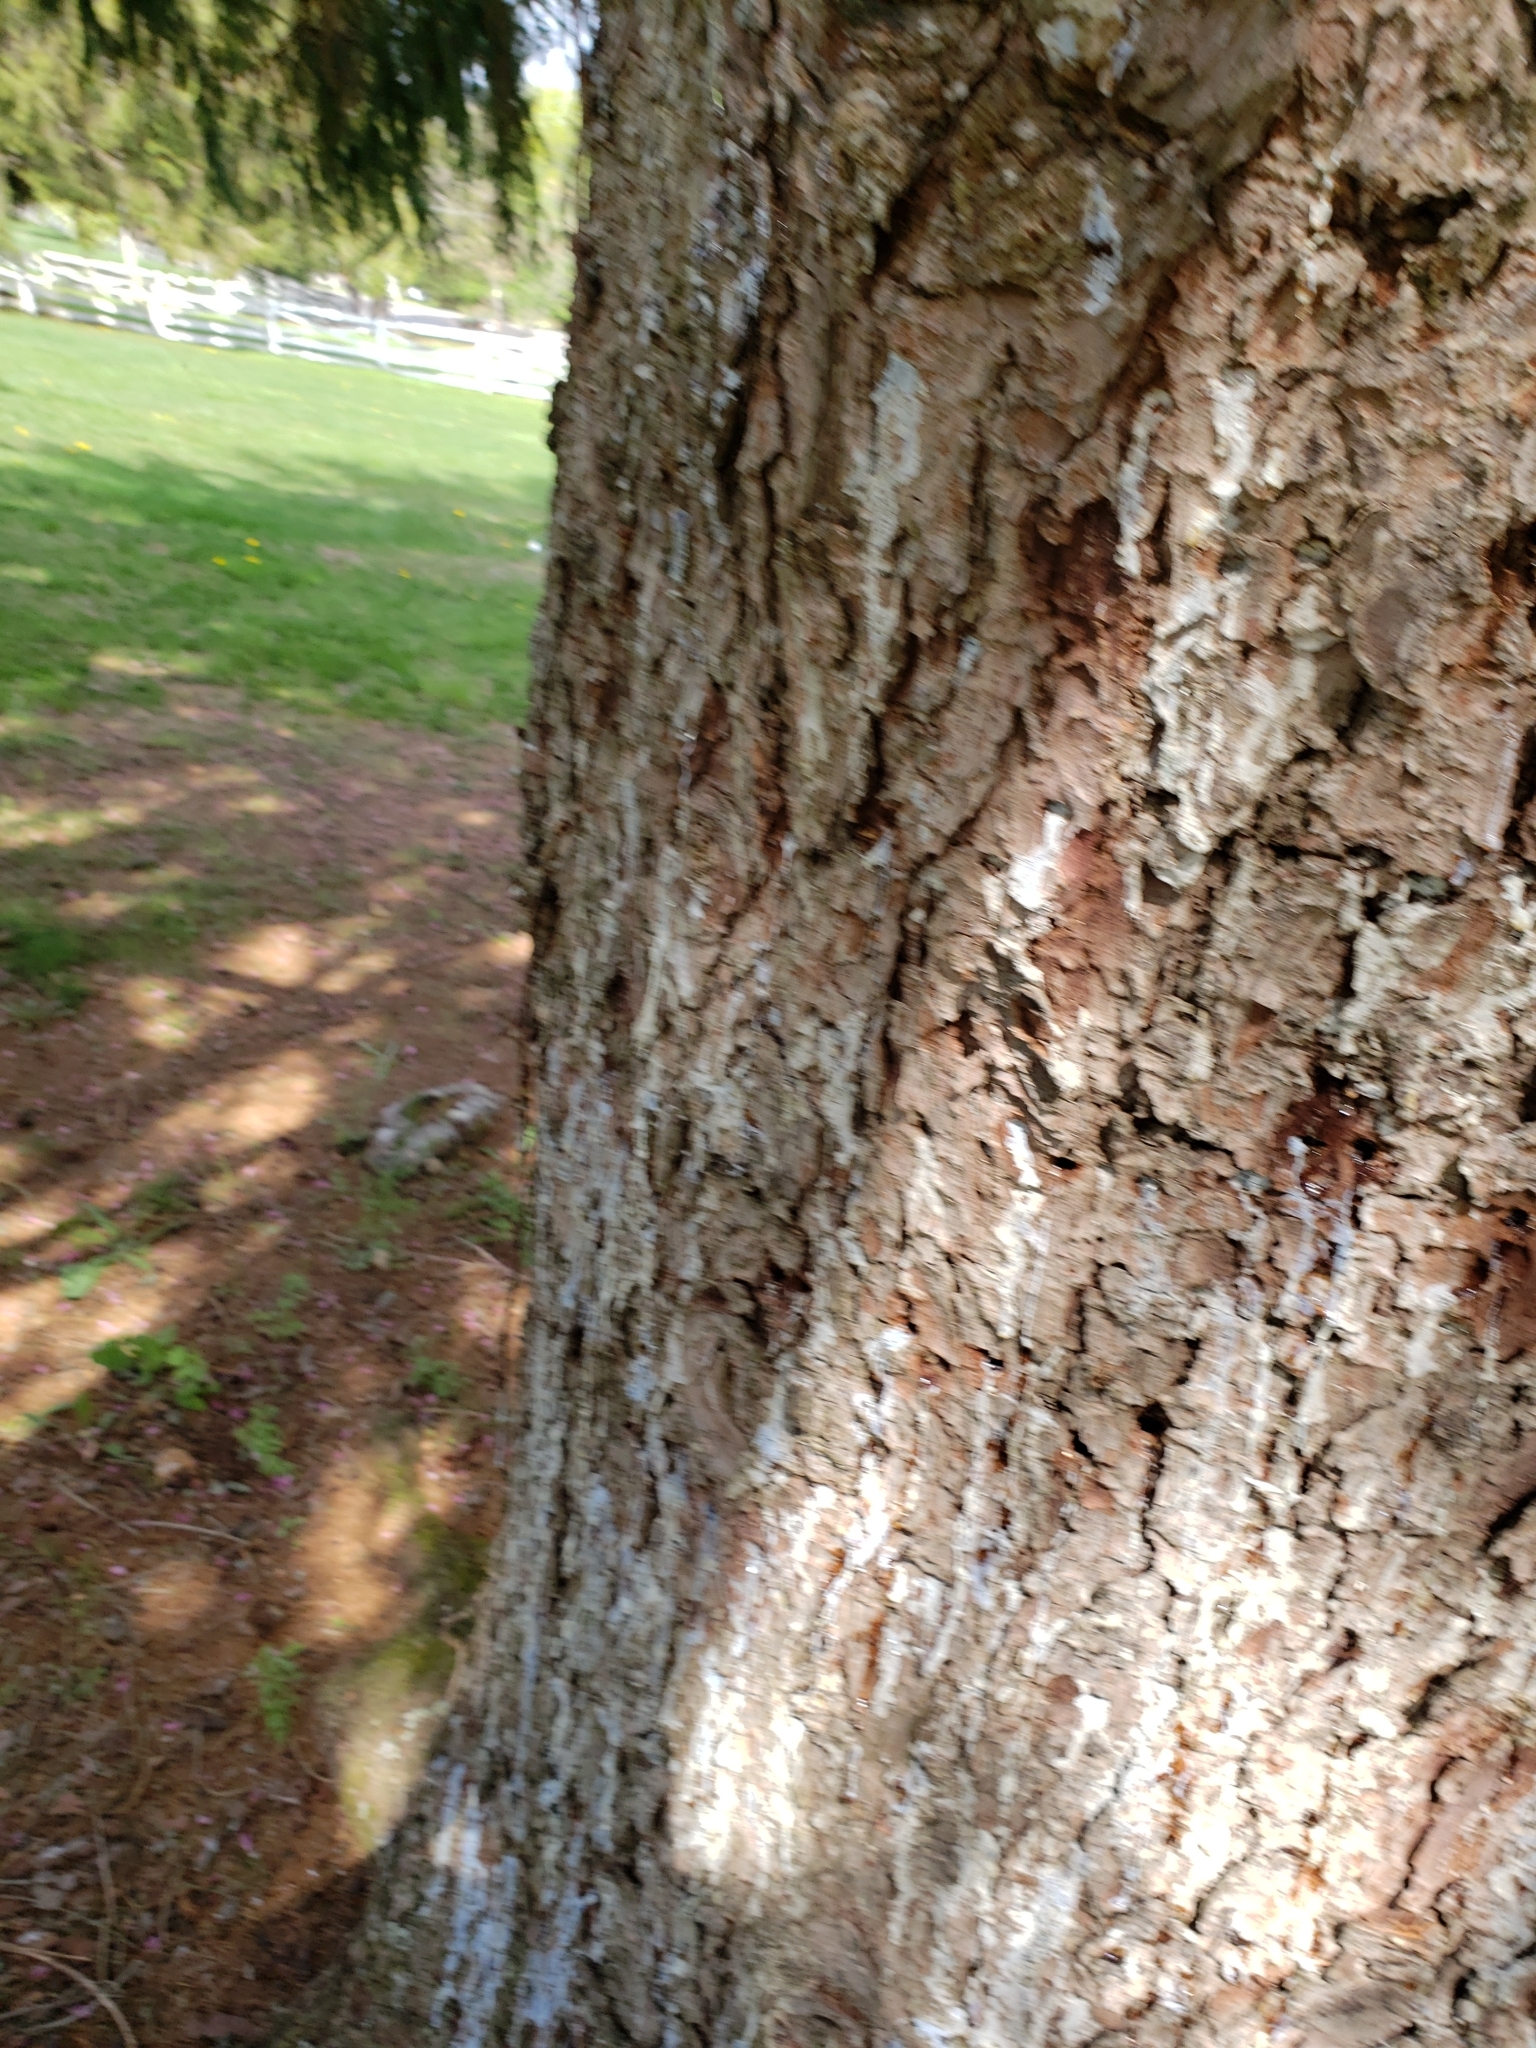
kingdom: Animalia
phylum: Arthropoda
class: Insecta
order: Coleoptera
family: Buprestidae
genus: Agrilus
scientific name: Agrilus planipennis
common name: Emerald ash borer
